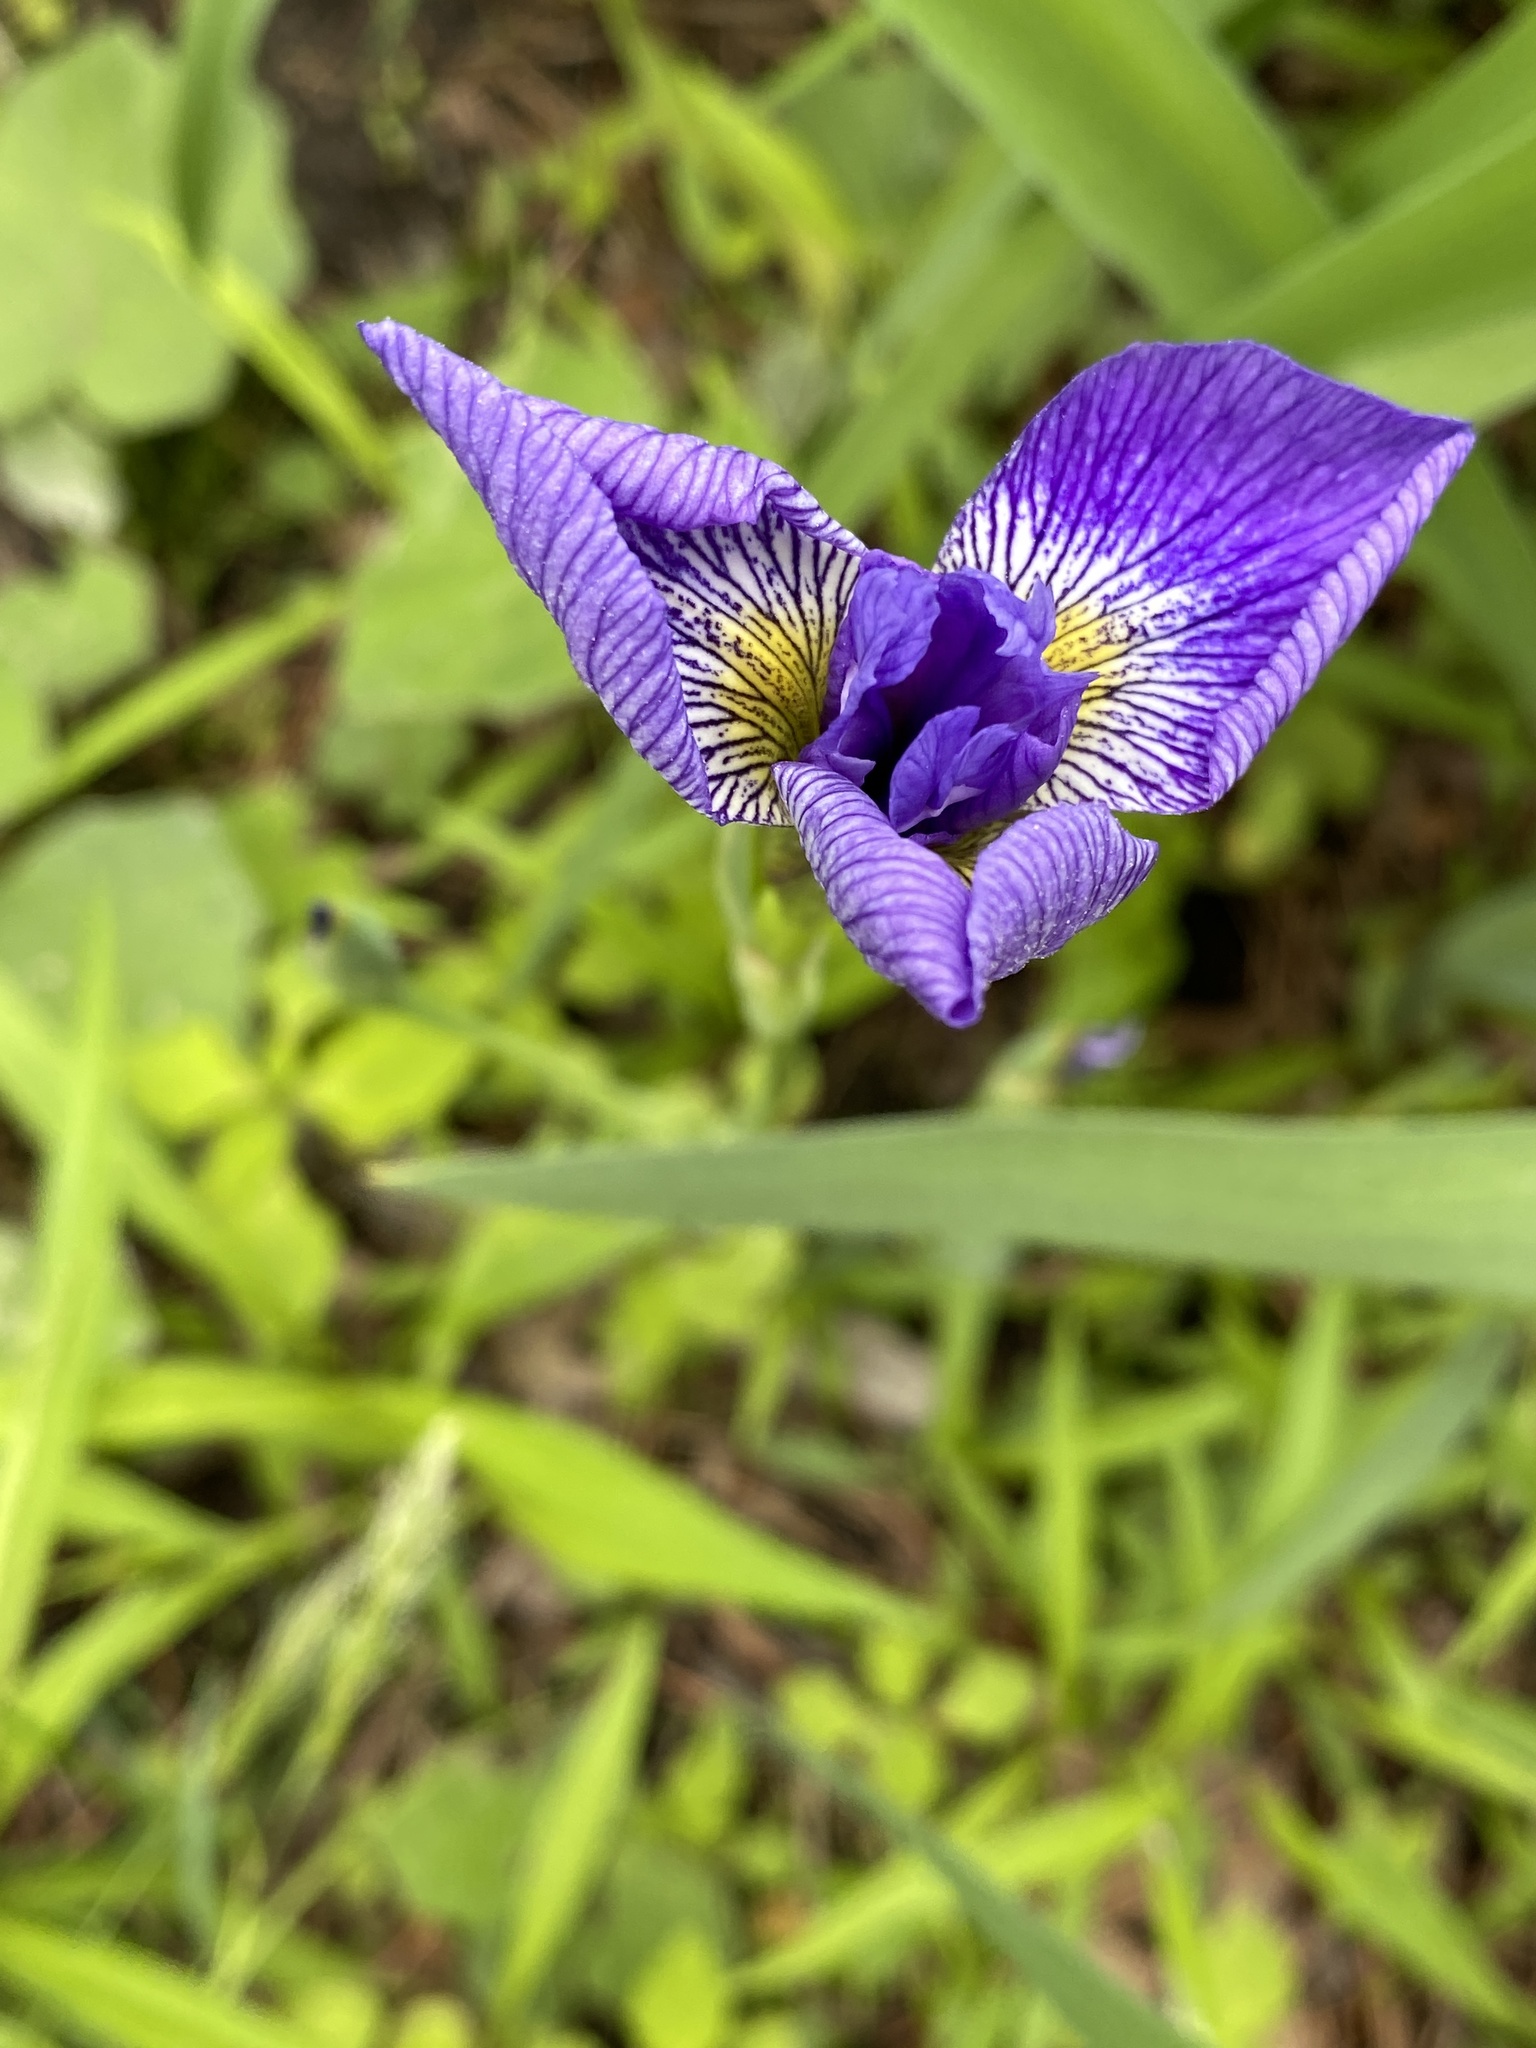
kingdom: Plantae
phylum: Tracheophyta
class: Liliopsida
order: Asparagales
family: Iridaceae
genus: Iris
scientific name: Iris versicolor
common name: Purple iris
